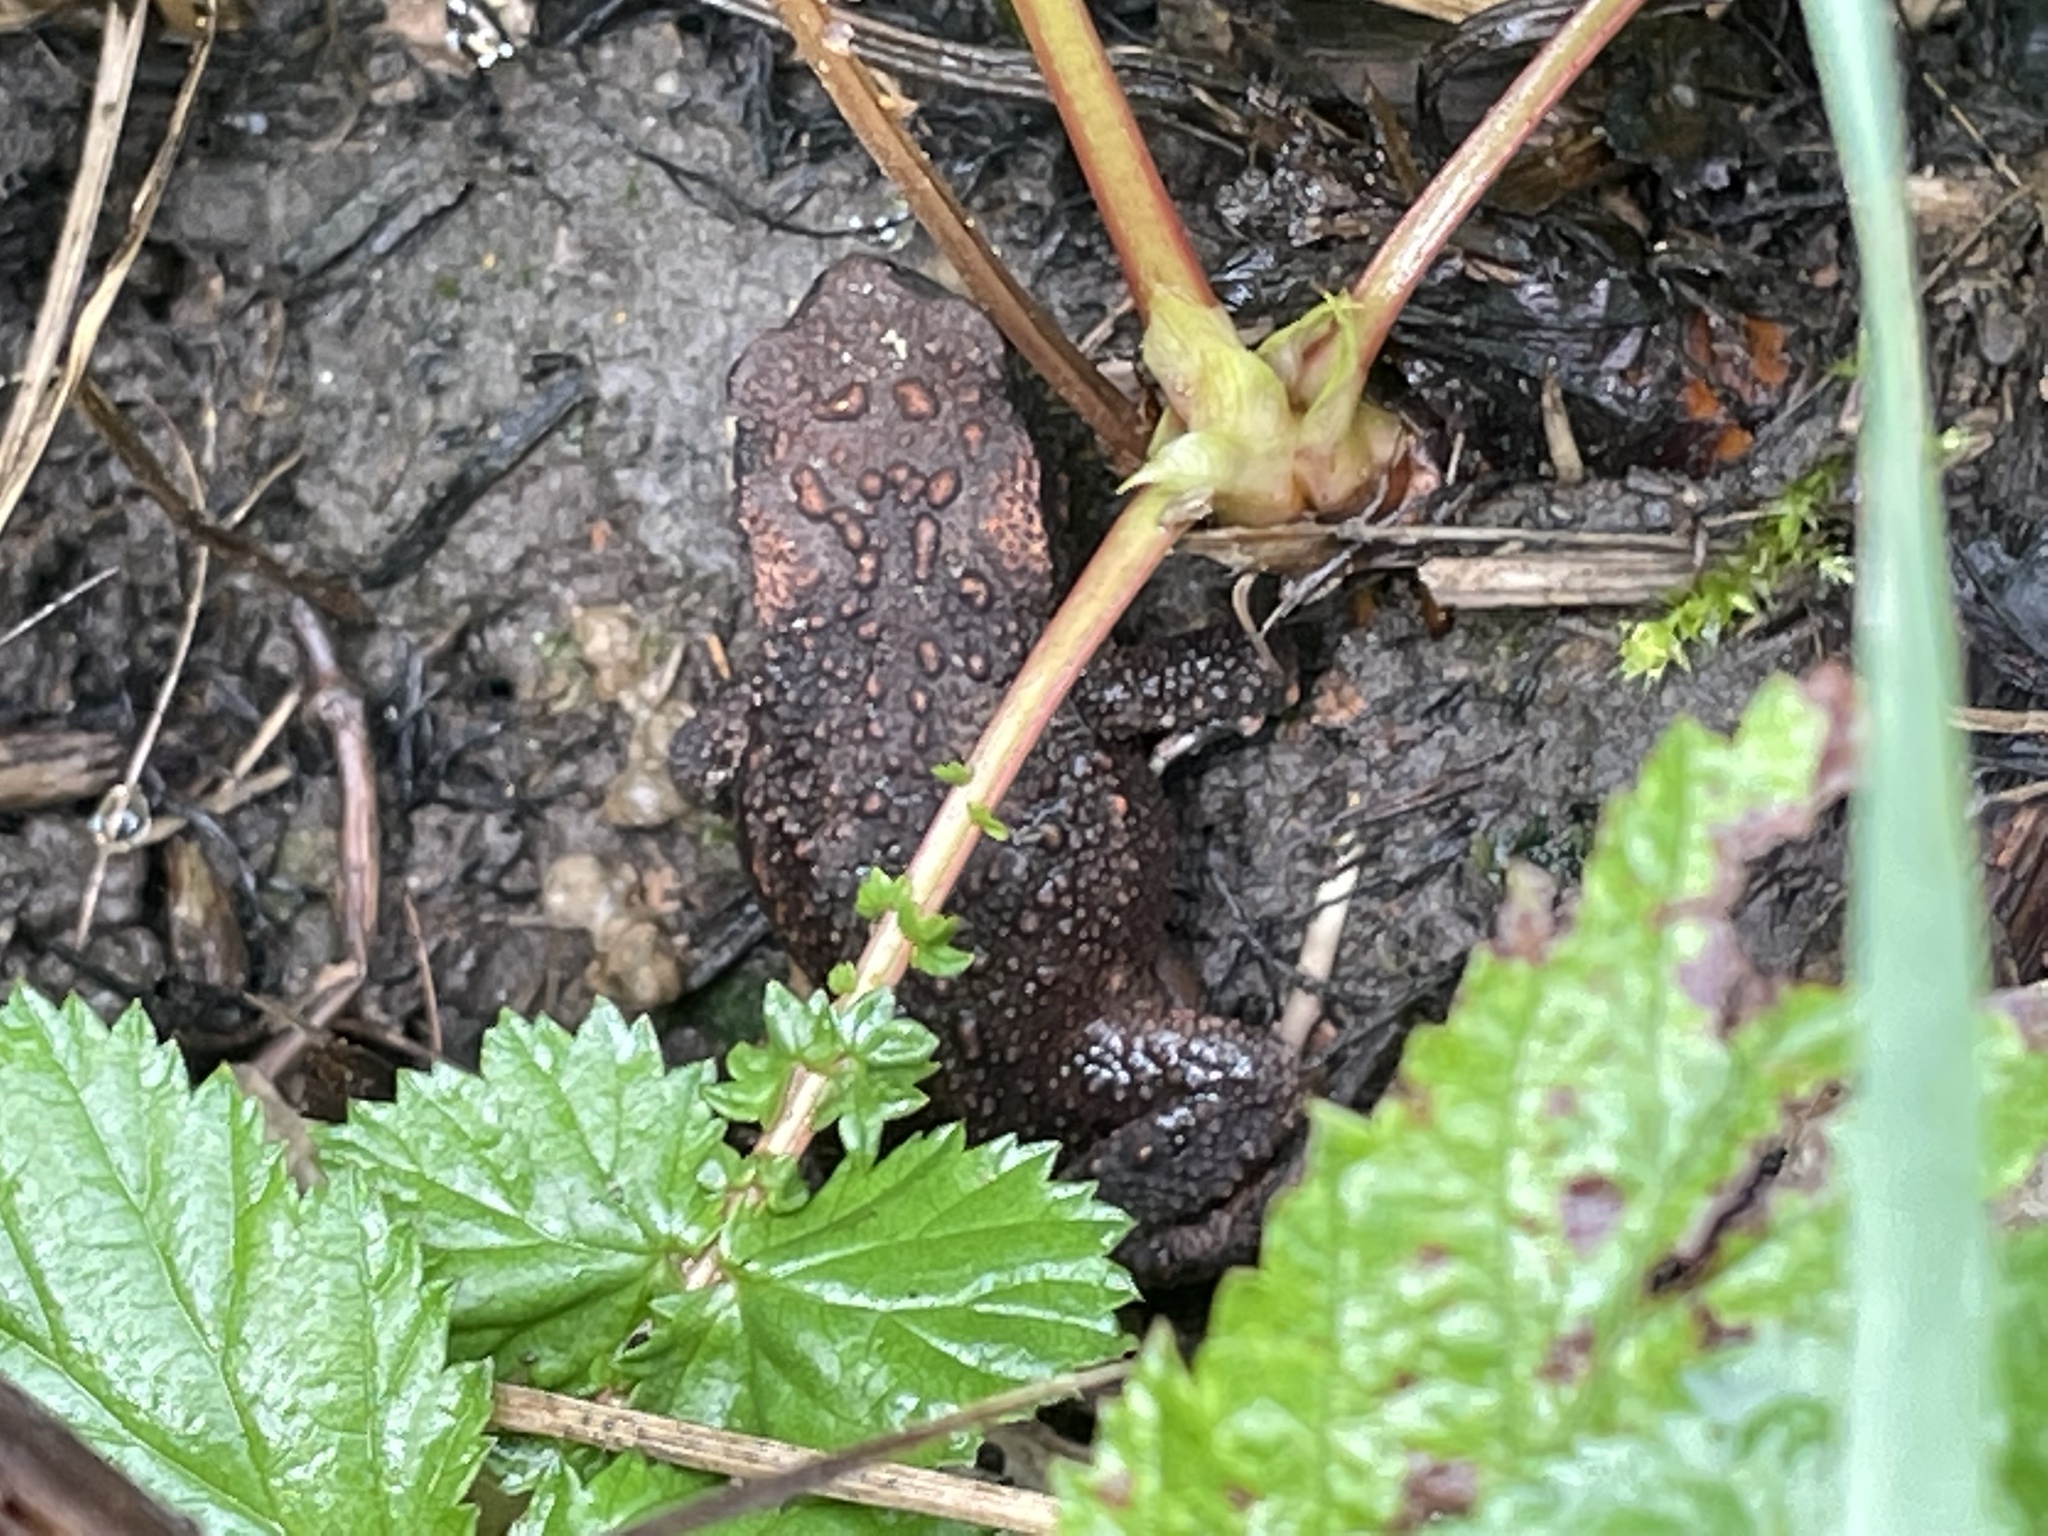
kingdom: Animalia
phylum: Chordata
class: Amphibia
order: Anura
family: Bufonidae
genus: Bufo
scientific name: Bufo bufo
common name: Common toad
